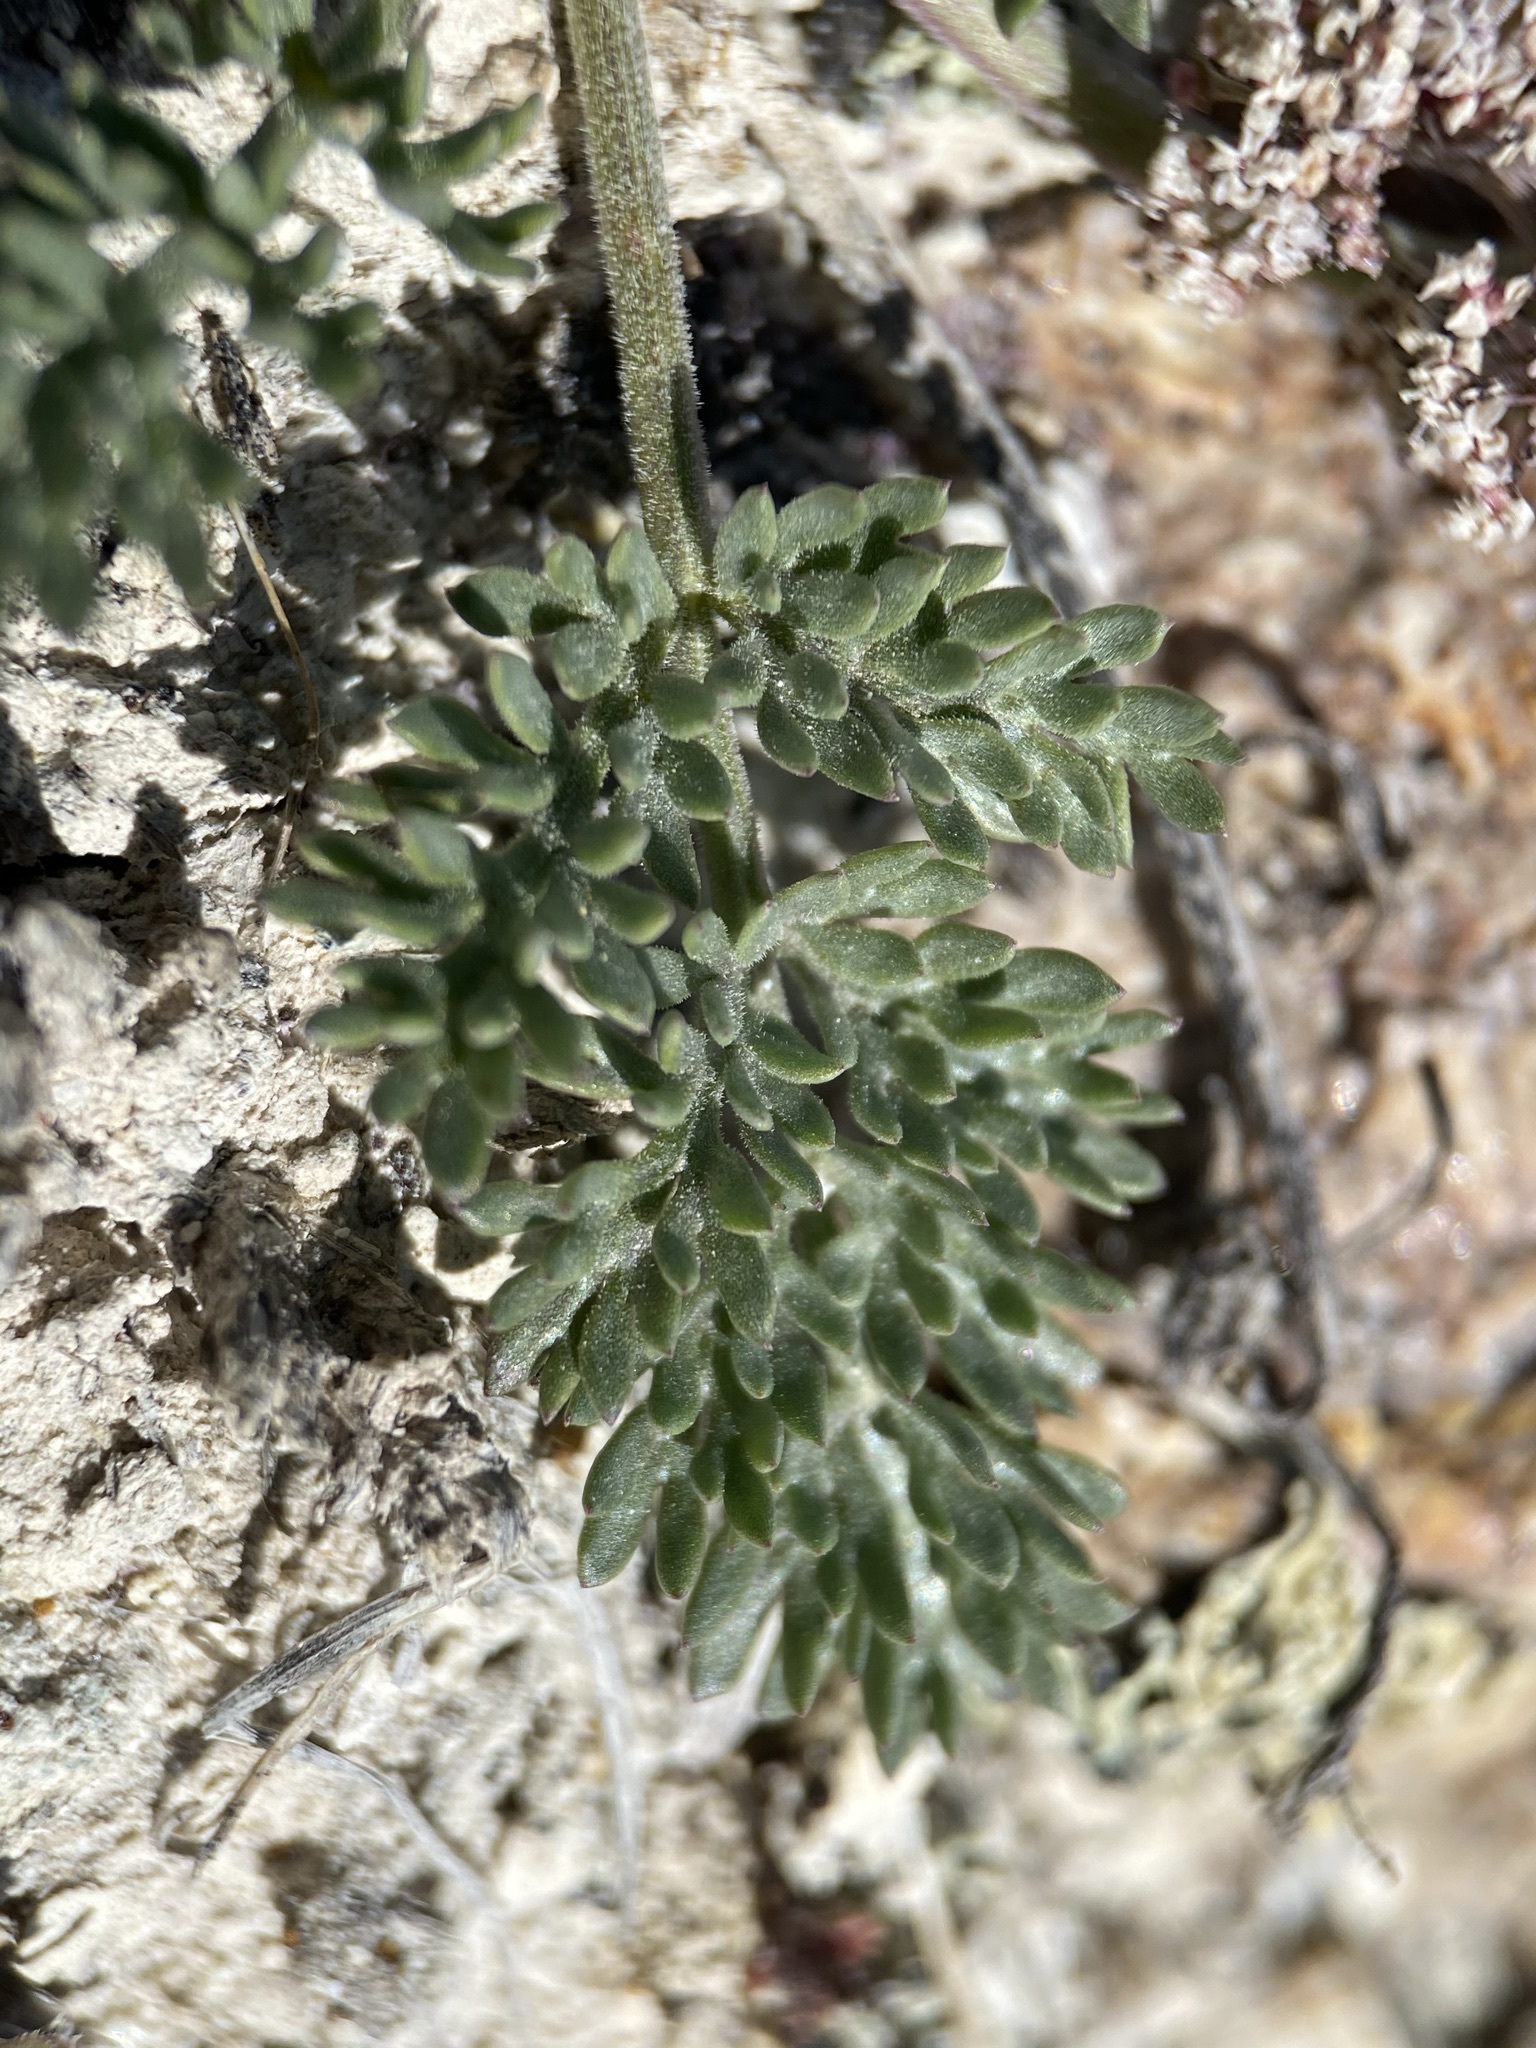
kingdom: Plantae
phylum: Tracheophyta
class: Magnoliopsida
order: Apiales
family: Apiaceae
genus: Lomatium
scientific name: Lomatium bentonitum
